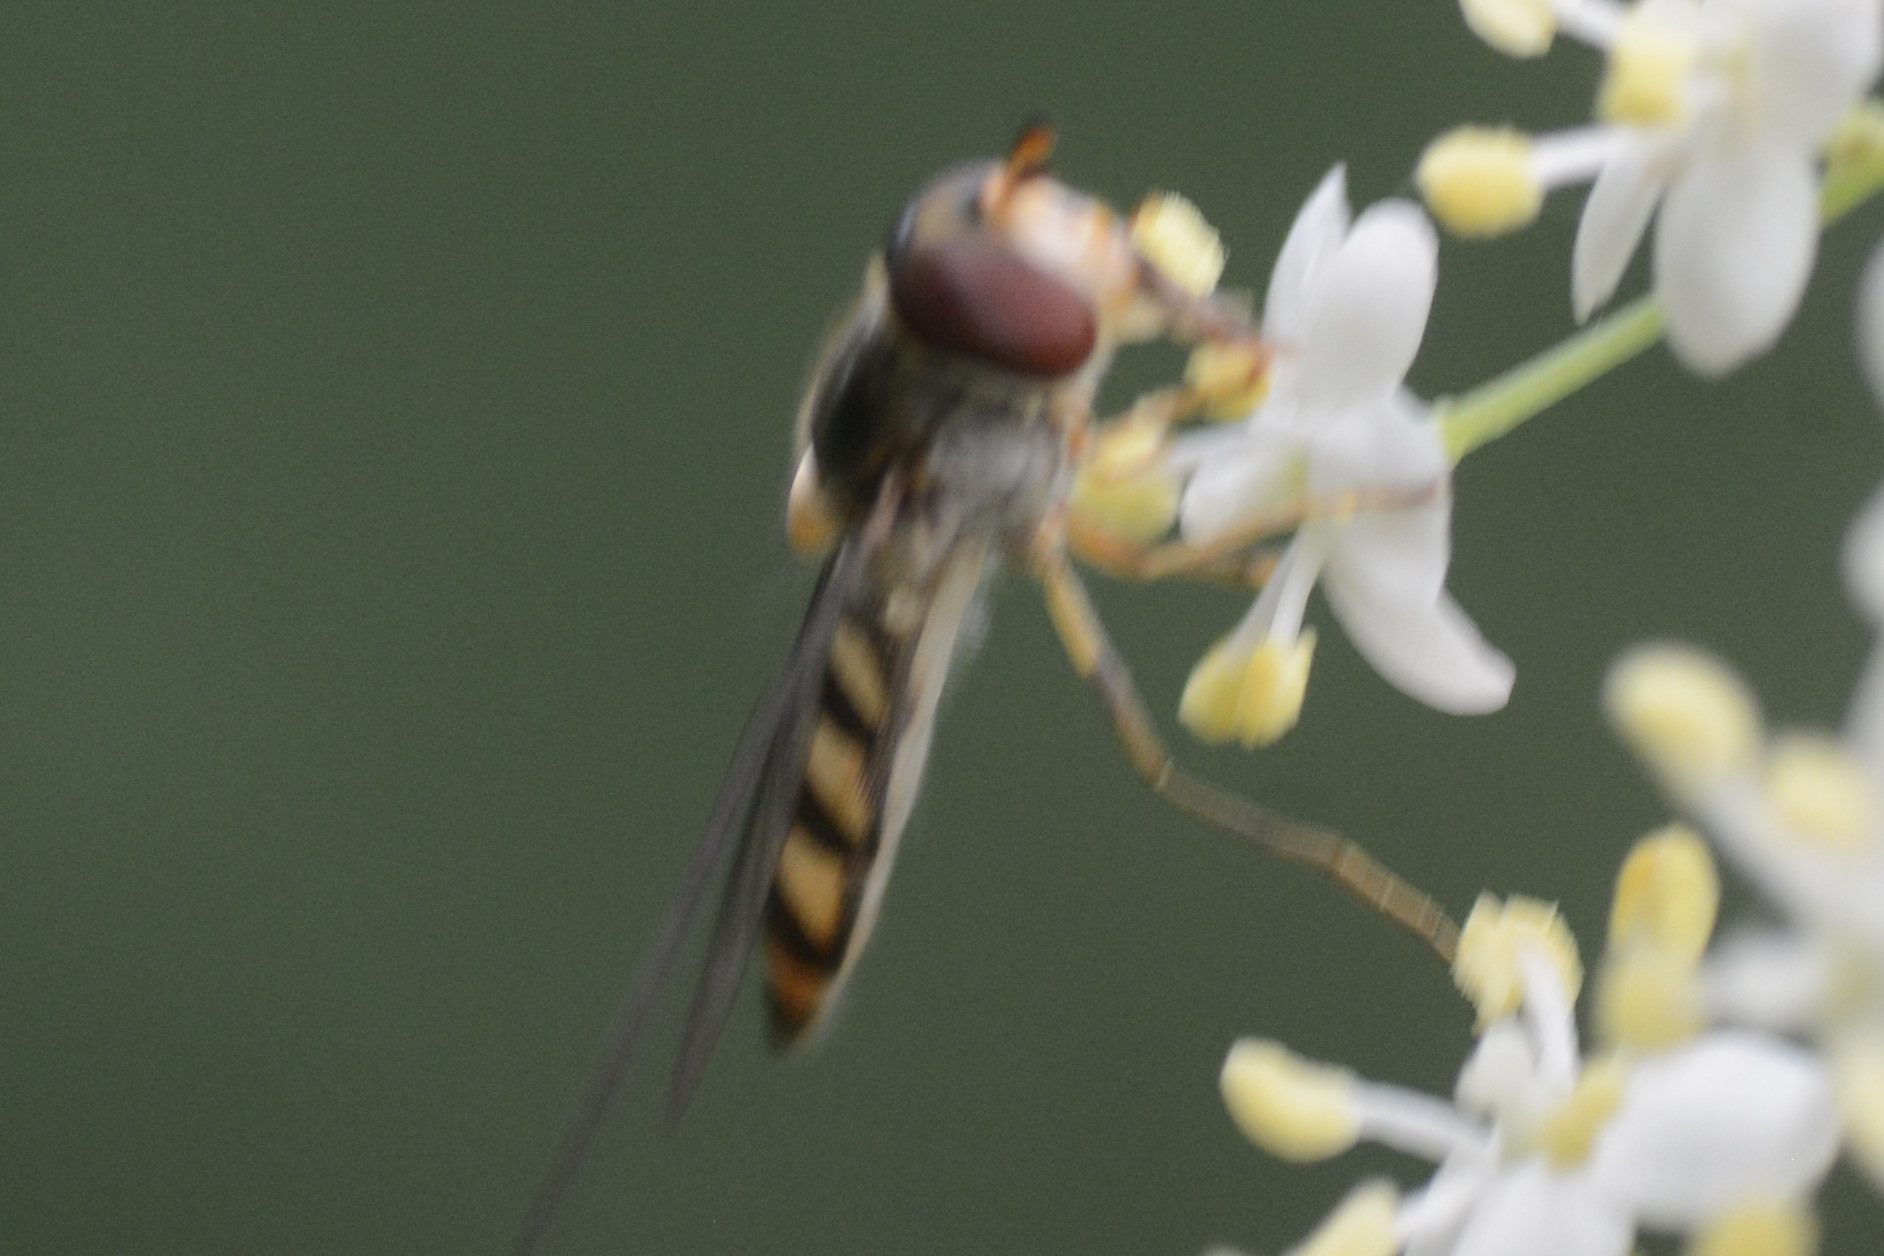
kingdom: Animalia
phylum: Arthropoda
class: Insecta
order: Diptera
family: Syrphidae
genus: Meliscaeva
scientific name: Meliscaeva auricollis
